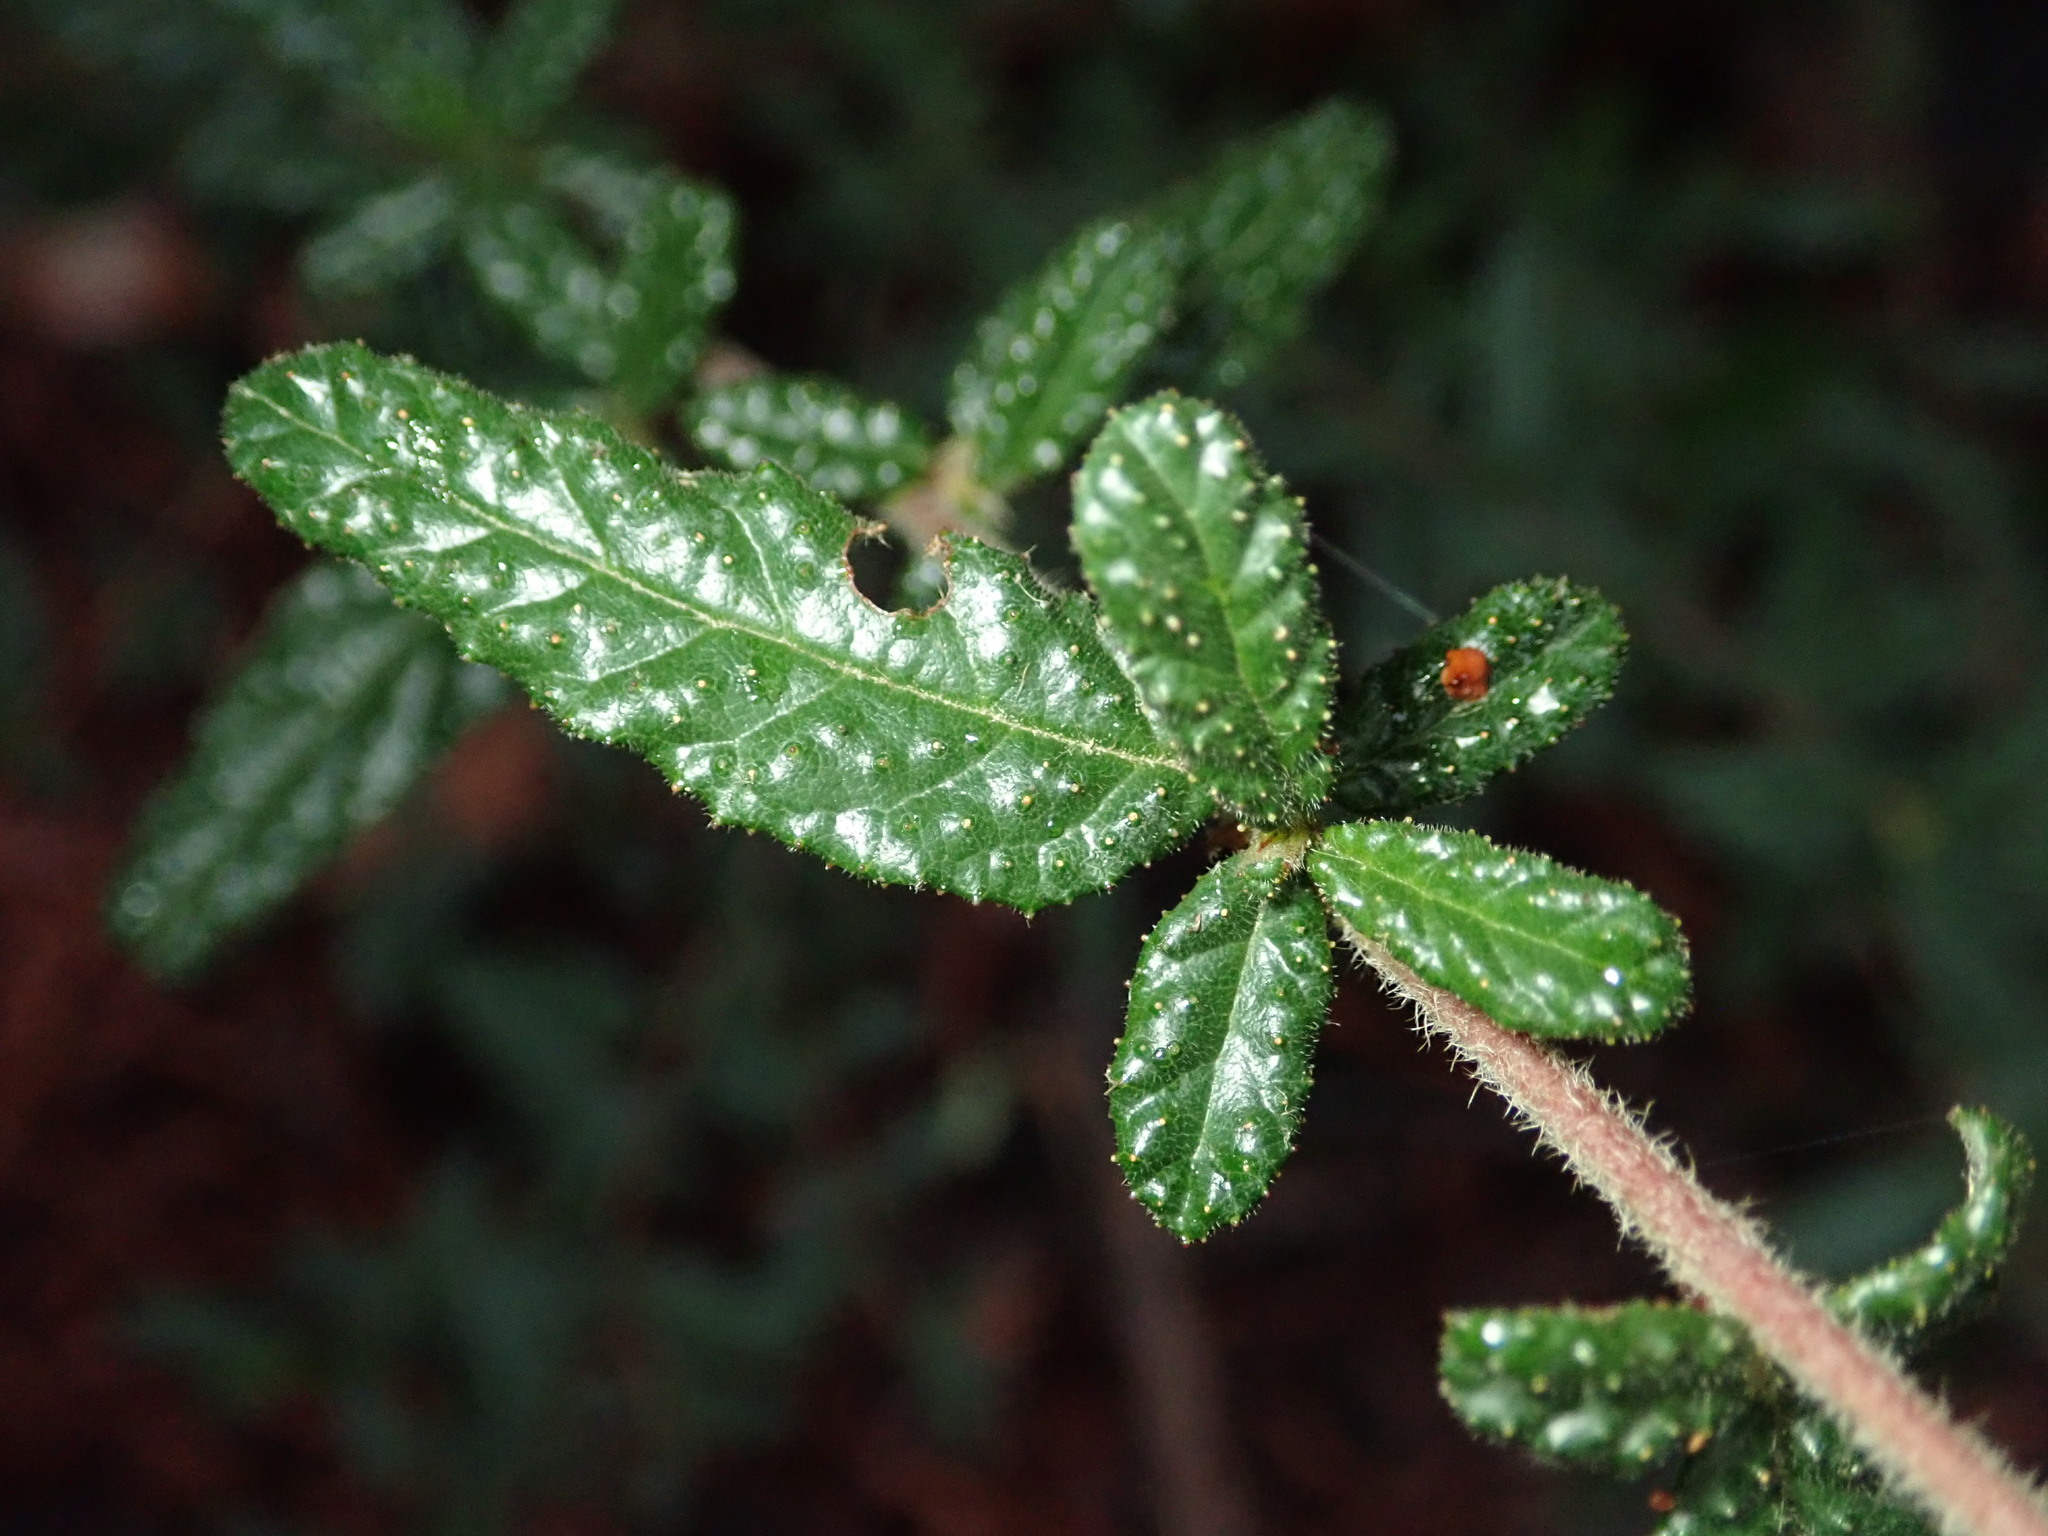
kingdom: Plantae
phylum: Tracheophyta
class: Magnoliopsida
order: Rosales
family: Rhamnaceae
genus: Ceanothus
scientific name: Ceanothus papillosus
